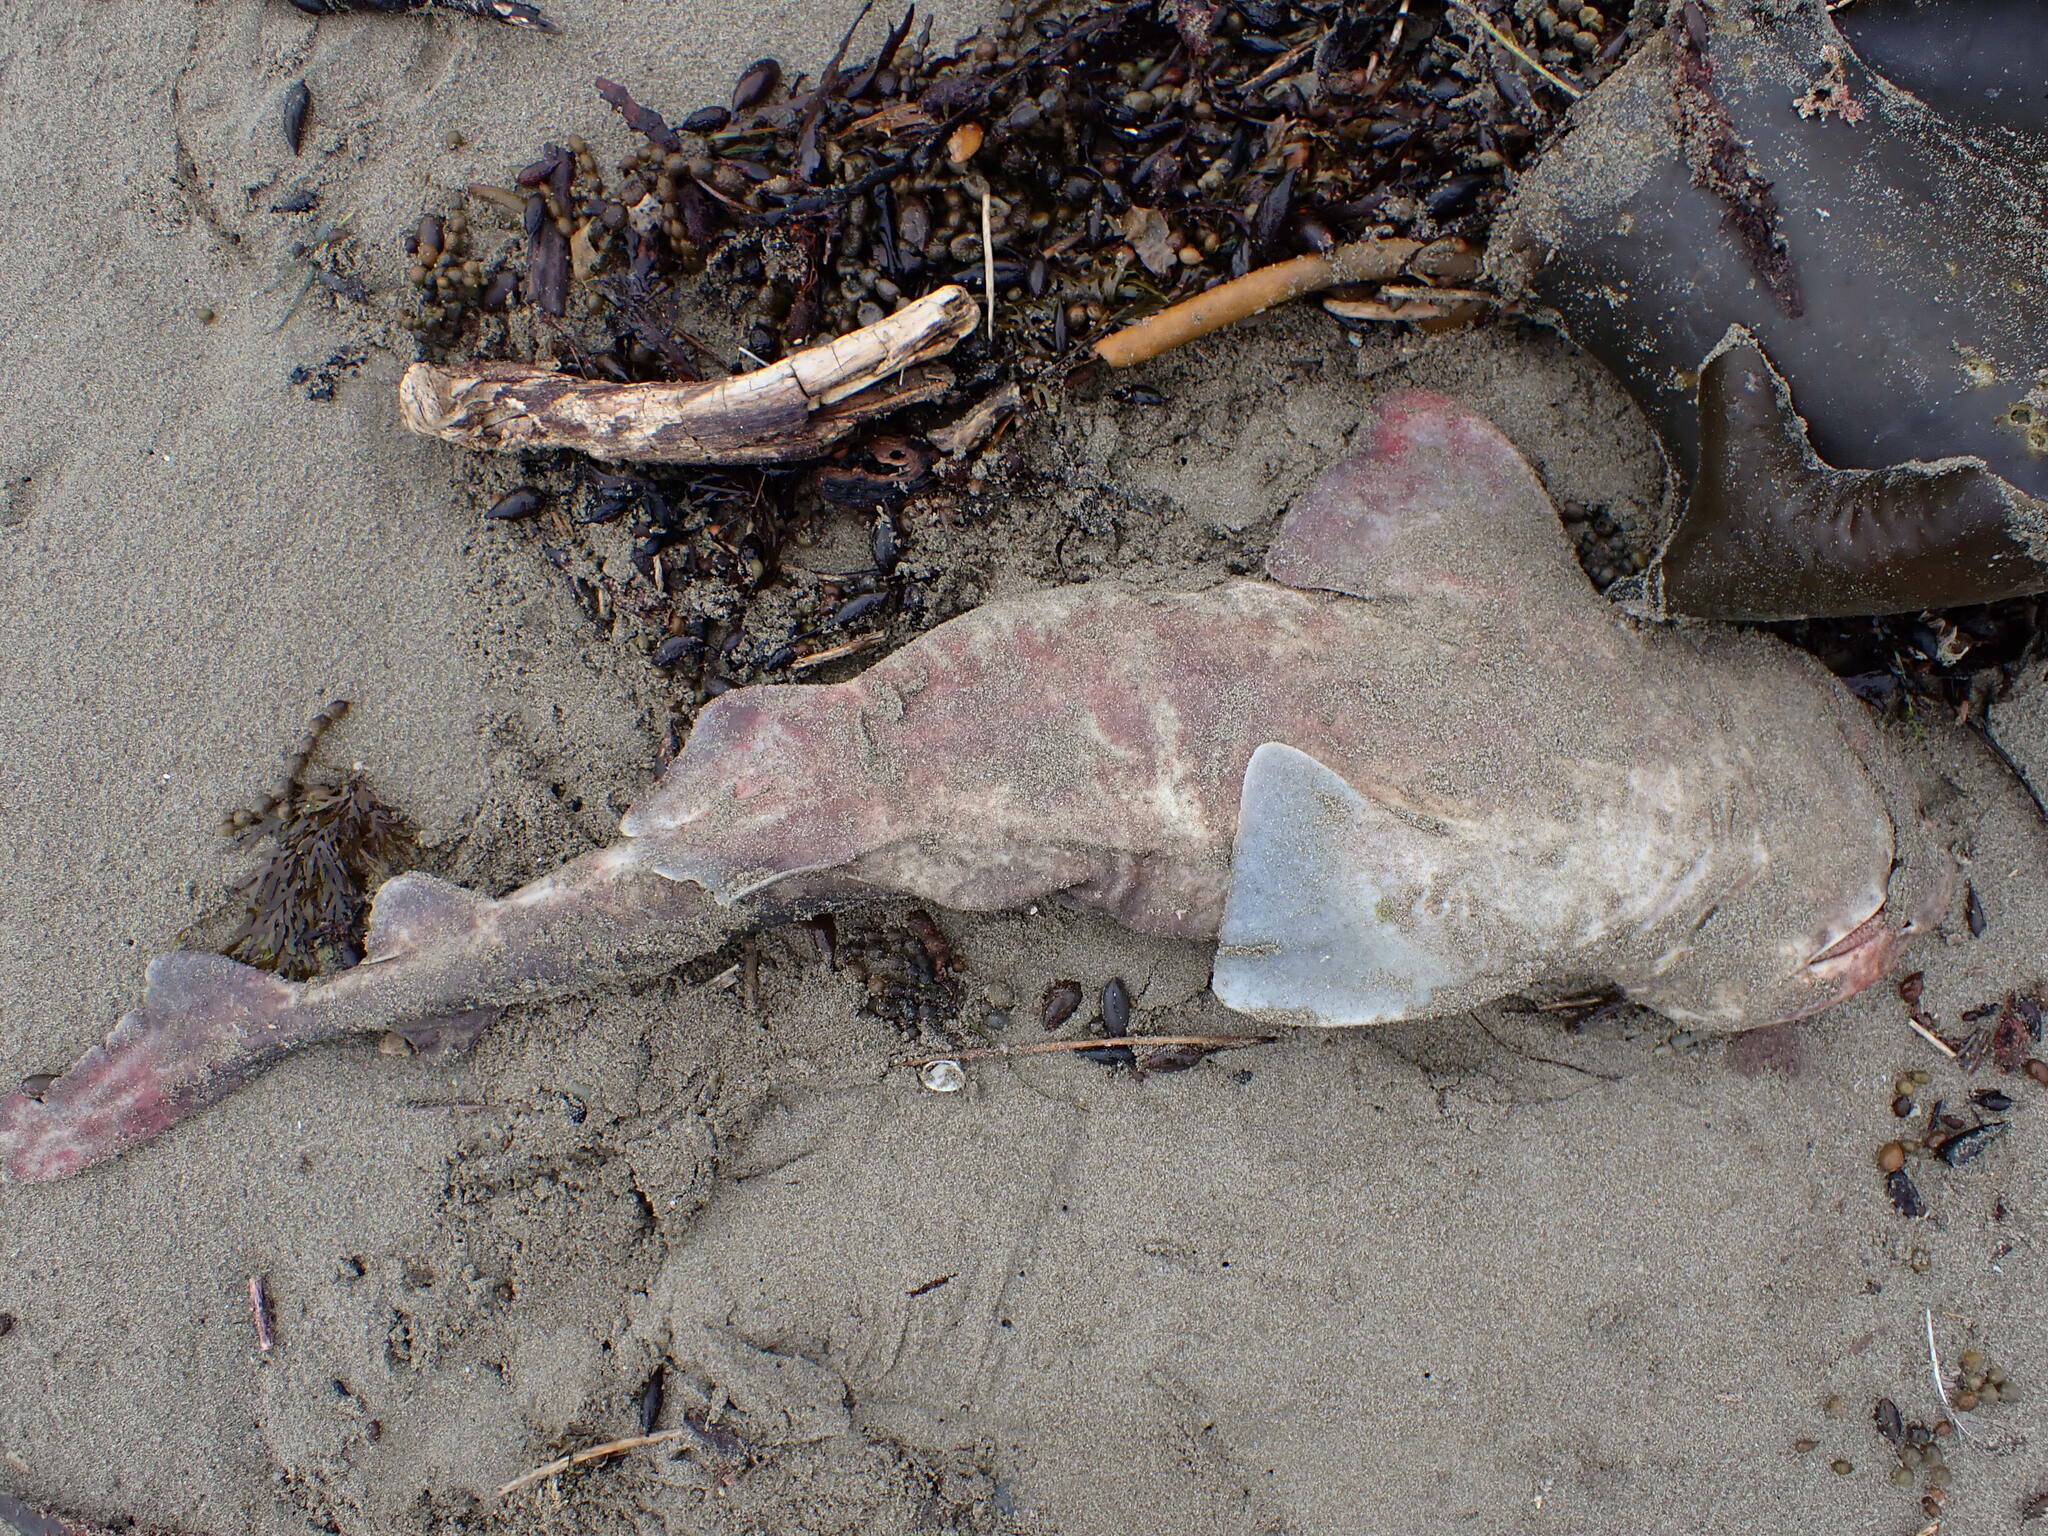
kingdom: Animalia
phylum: Chordata
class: Elasmobranchii
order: Carcharhiniformes
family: Scyliorhinidae
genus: Cephaloscyllium
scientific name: Cephaloscyllium isabellum
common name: Carpet shark
